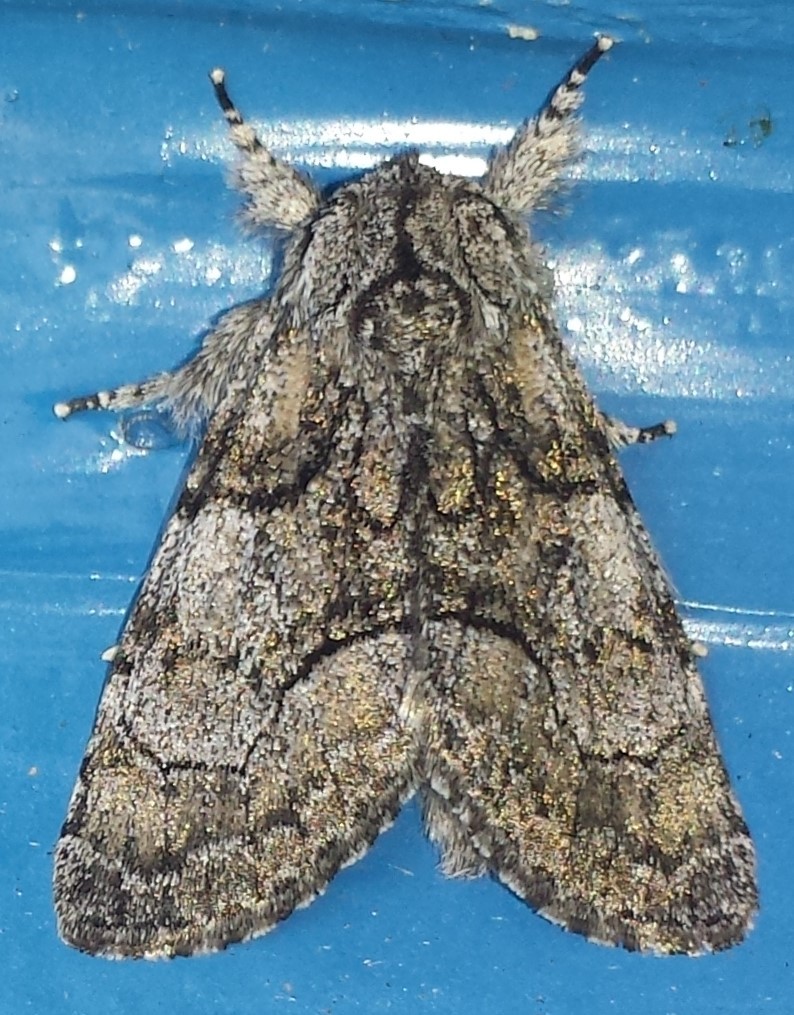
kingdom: Animalia
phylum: Arthropoda
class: Insecta
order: Lepidoptera
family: Noctuidae
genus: Raphia
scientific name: Raphia frater
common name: Brother
